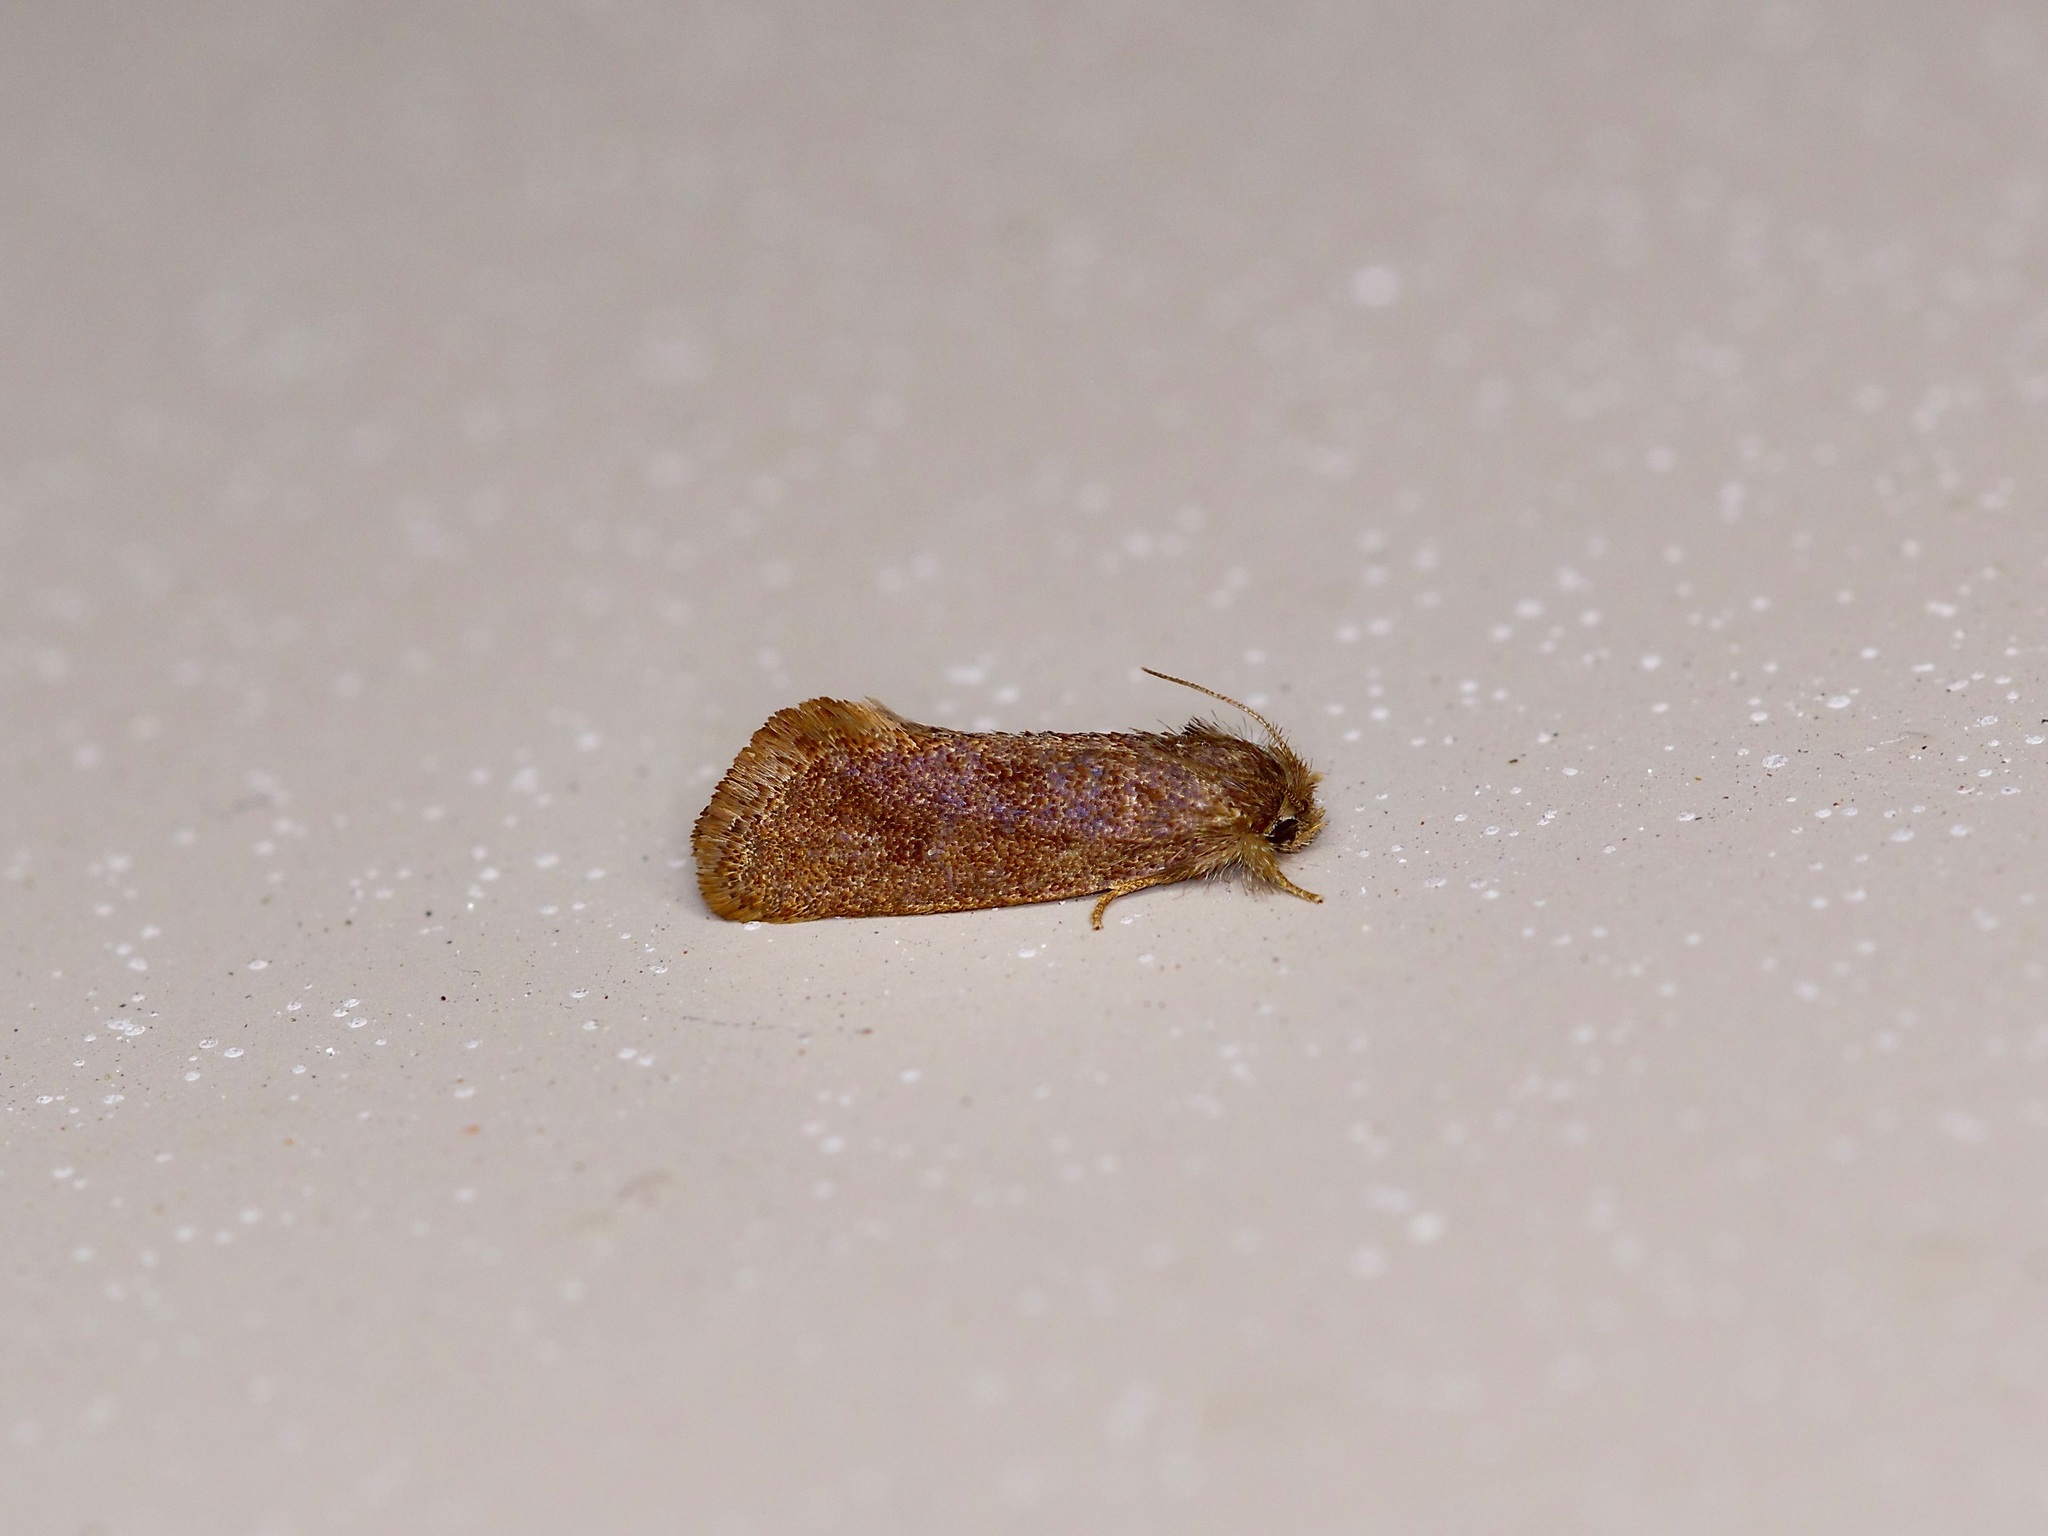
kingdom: Animalia
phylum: Arthropoda
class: Insecta
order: Lepidoptera
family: Tineidae
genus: Acrolophus
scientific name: Acrolophus heppneri
